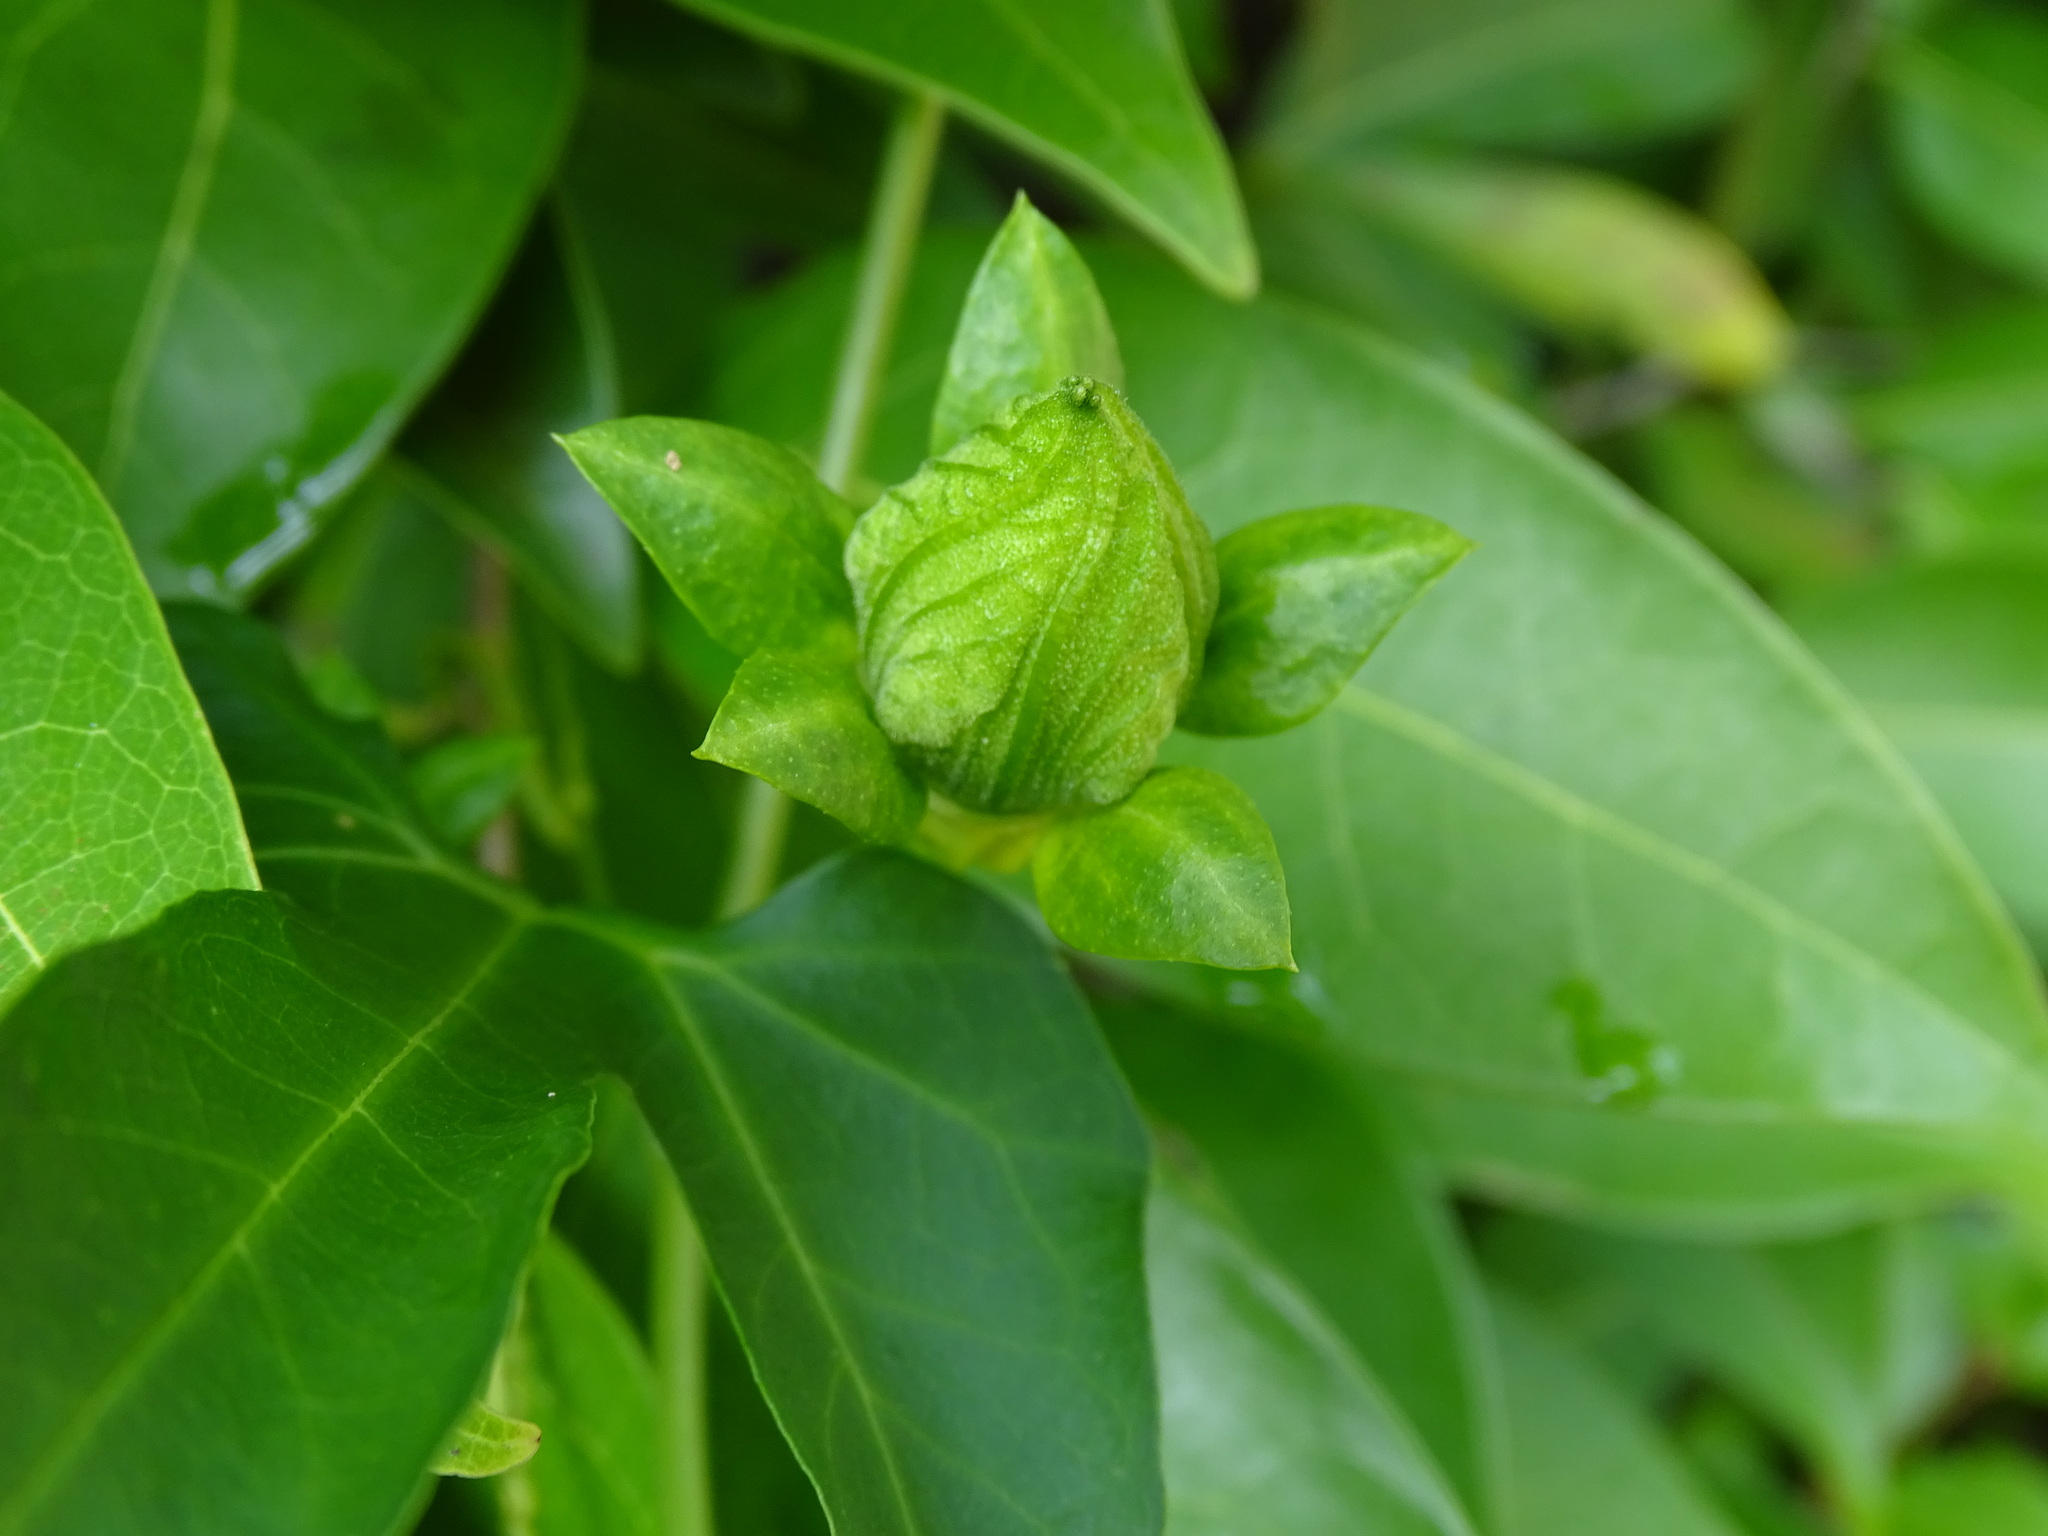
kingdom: Plantae
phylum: Tracheophyta
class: Magnoliopsida
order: Cucurbitales
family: Cucurbitaceae
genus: Cionosicys
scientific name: Cionosicys excisus
